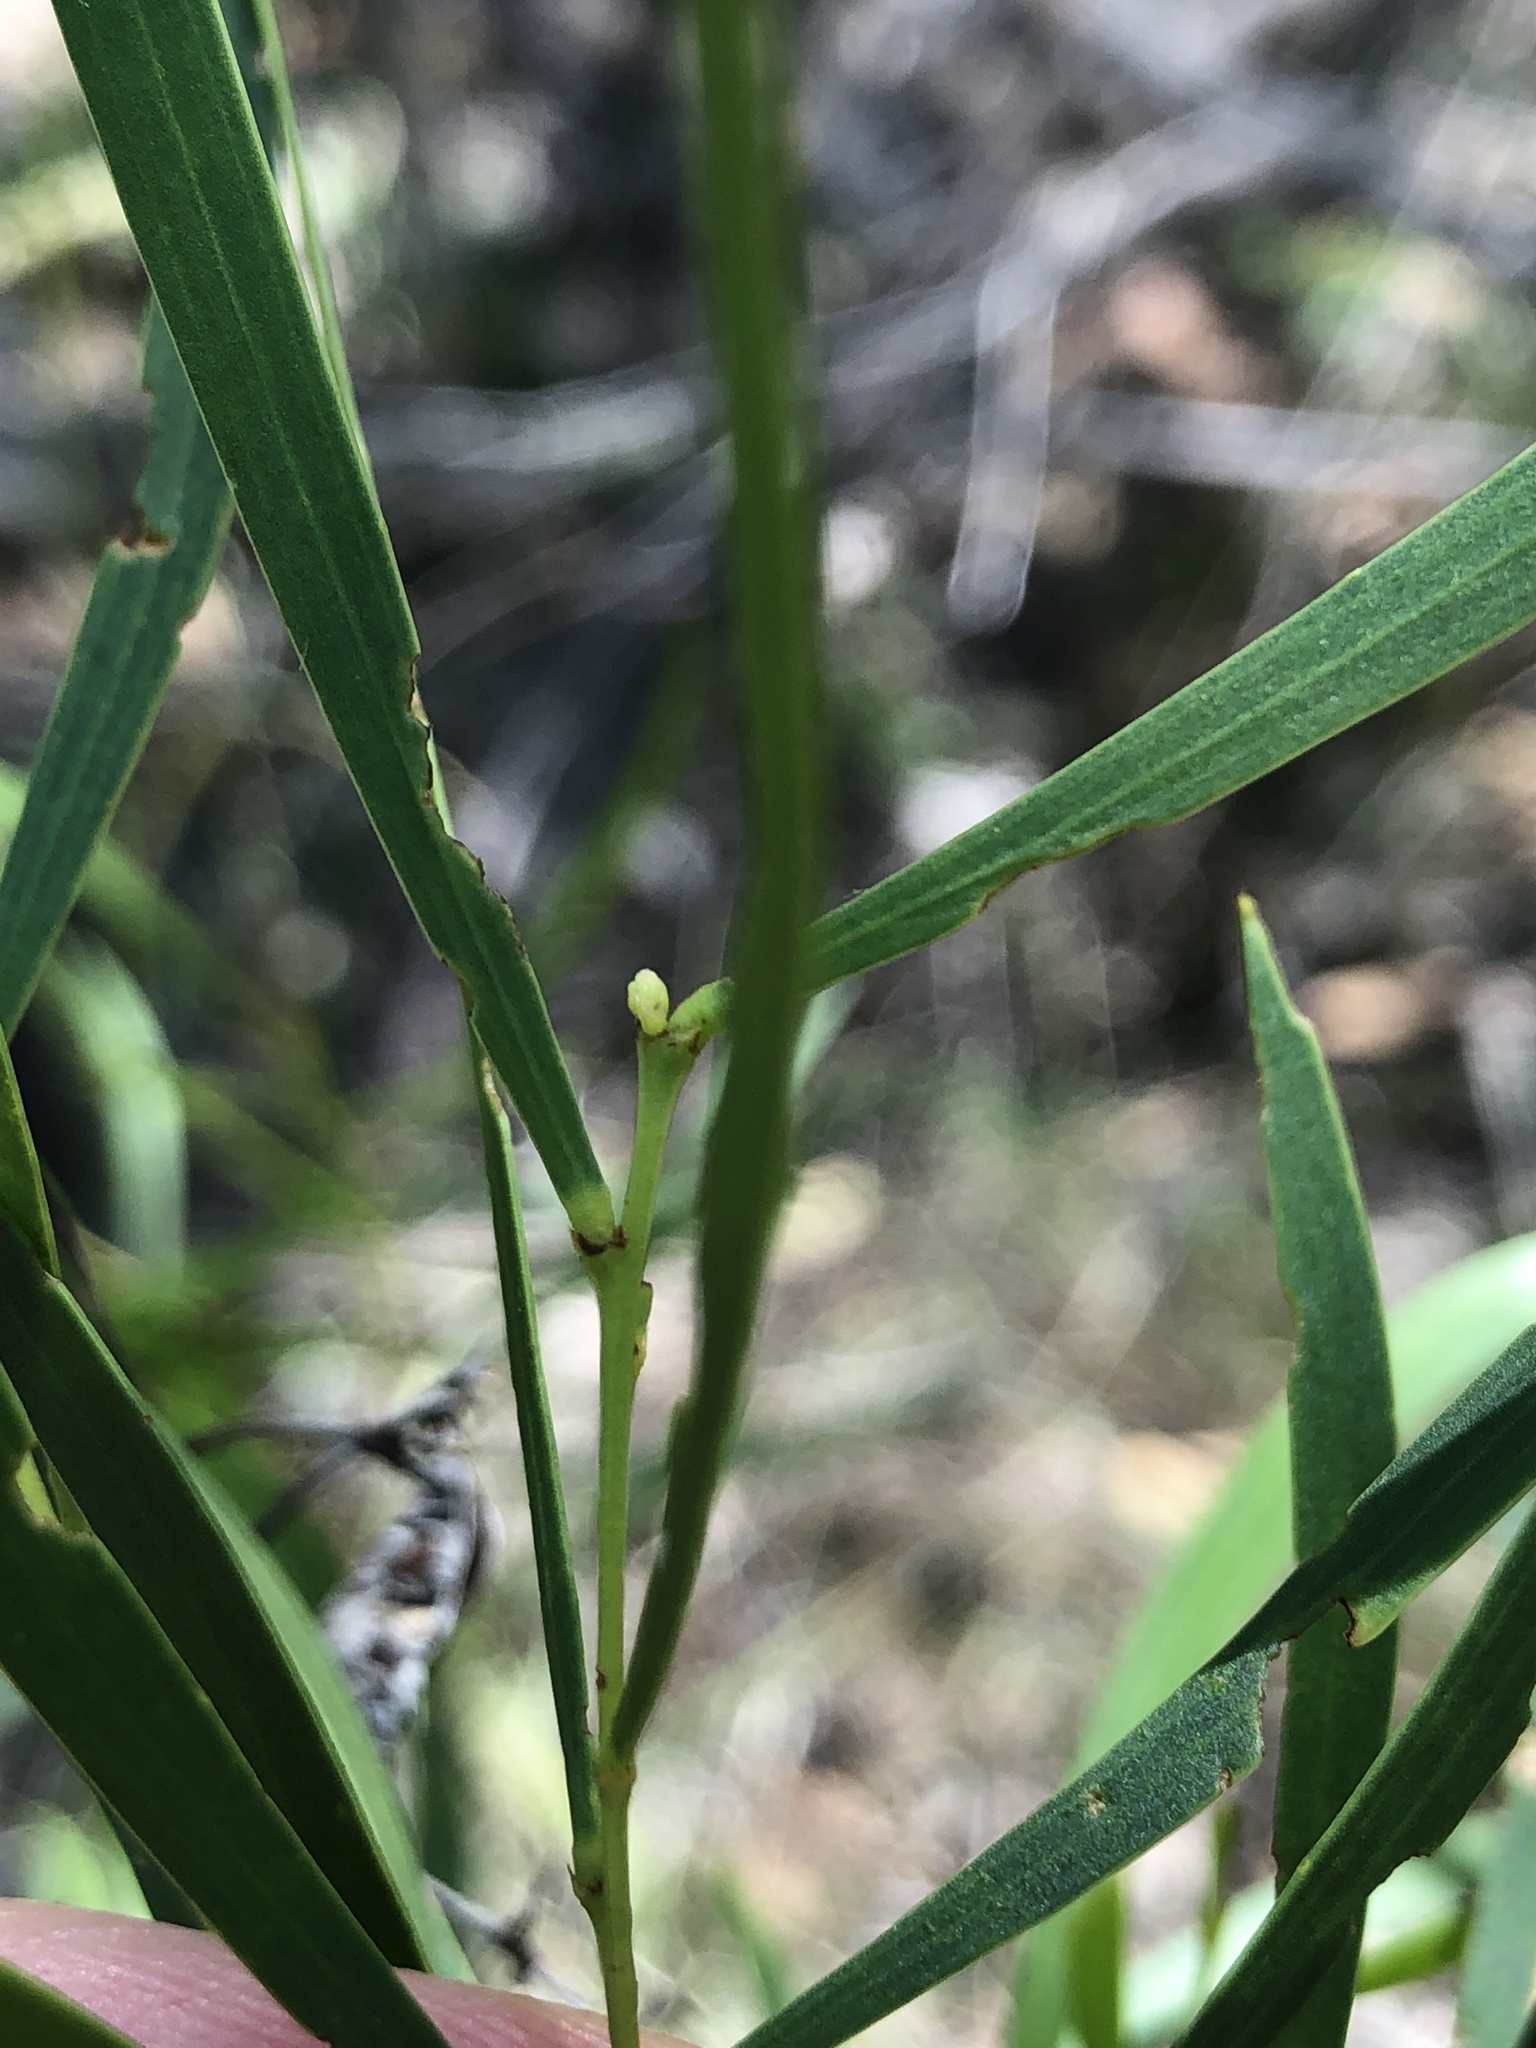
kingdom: Plantae
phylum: Tracheophyta
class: Magnoliopsida
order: Fabales
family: Fabaceae
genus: Acacia
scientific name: Acacia simsii
